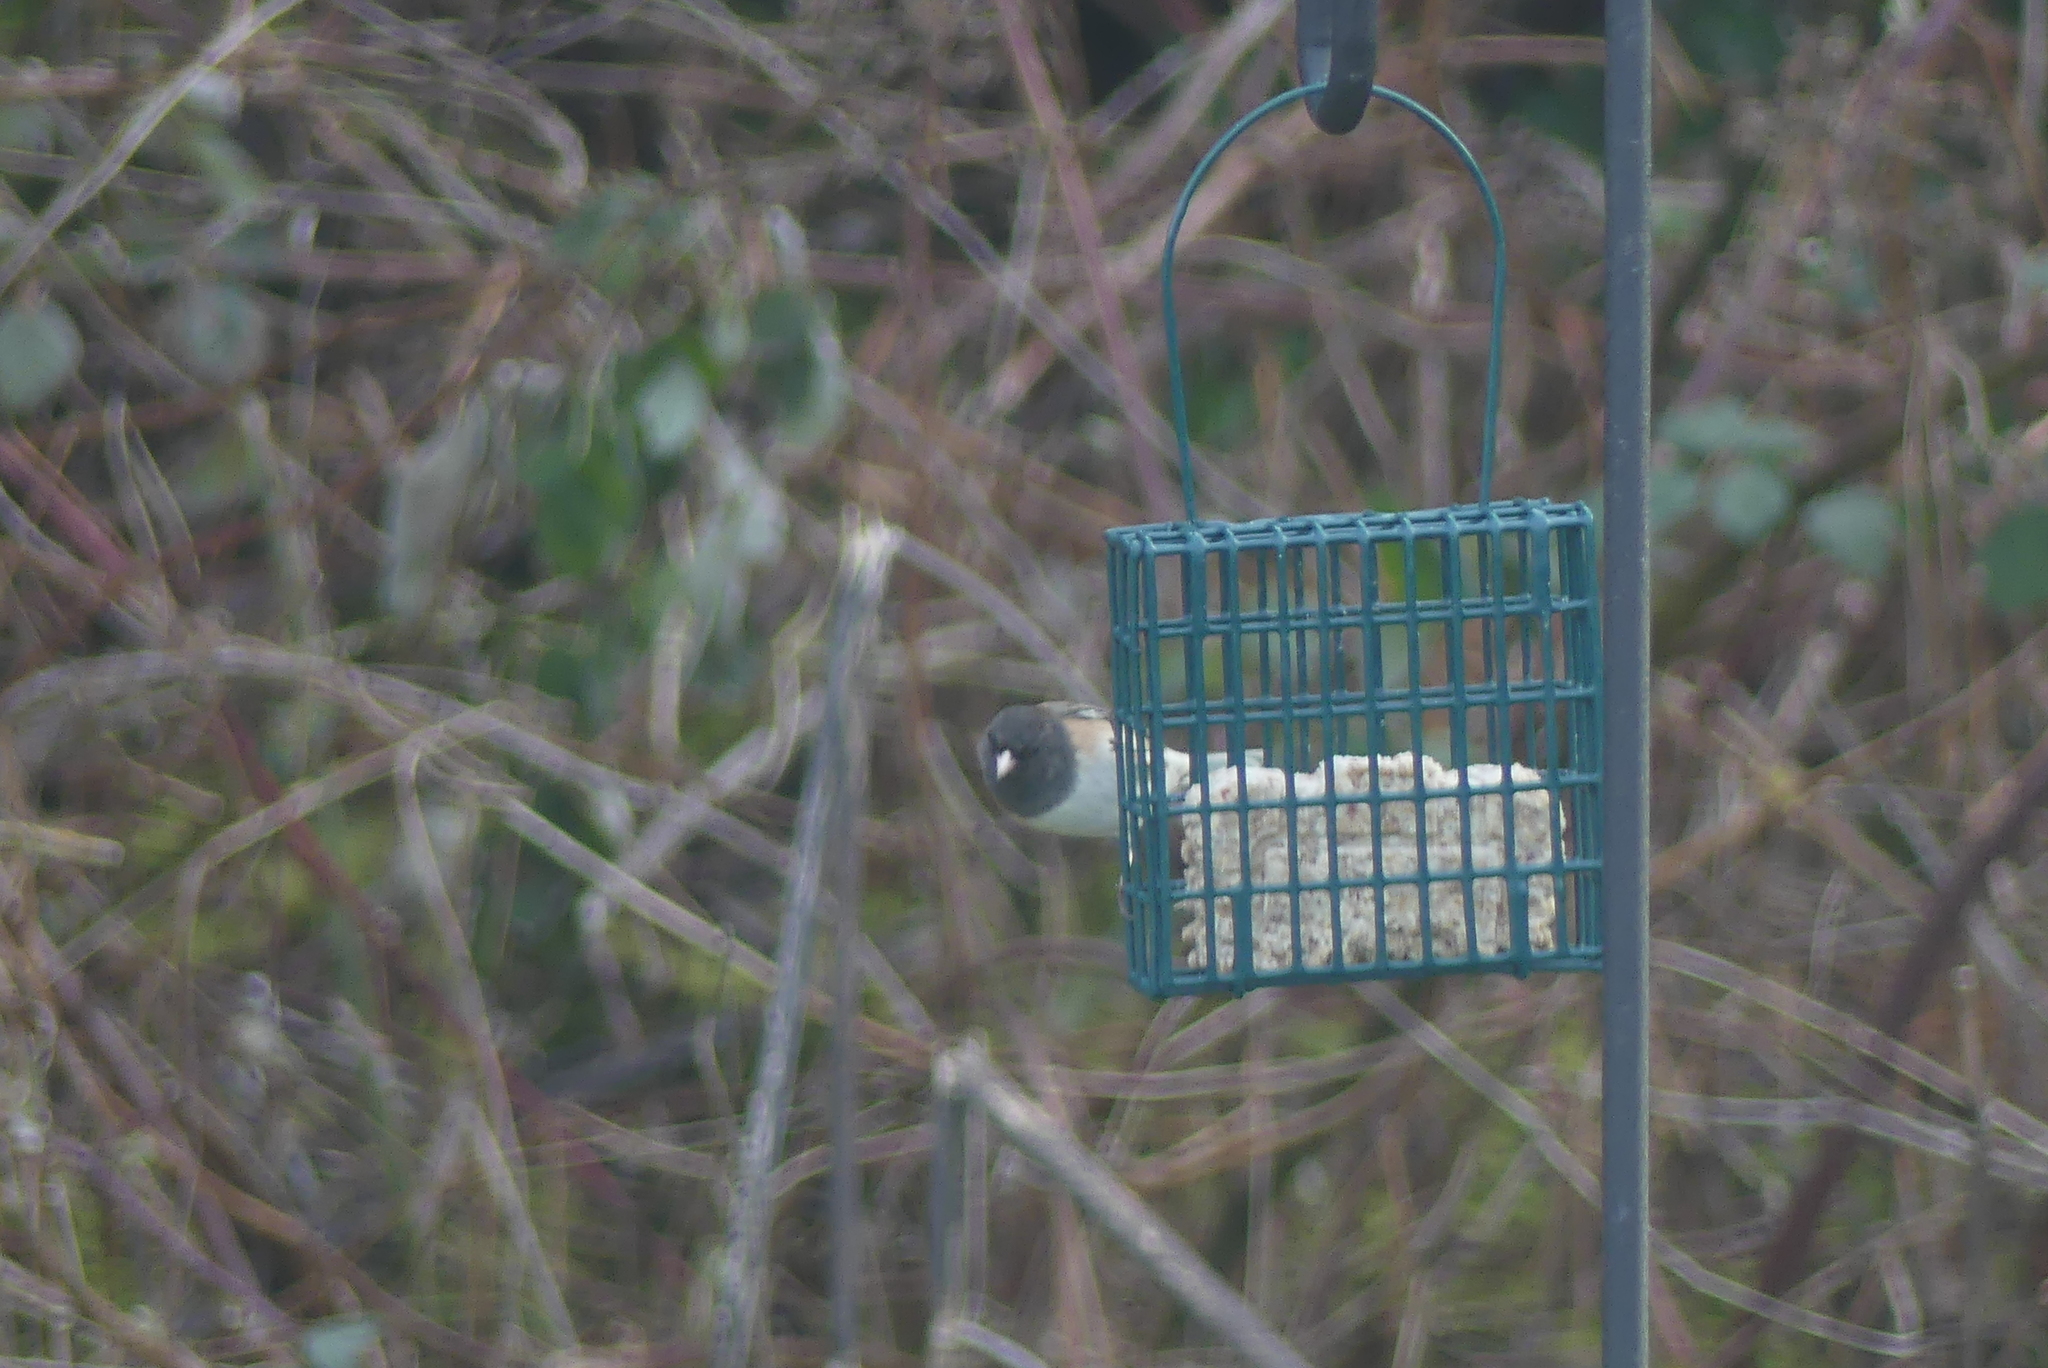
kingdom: Animalia
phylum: Chordata
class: Aves
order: Passeriformes
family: Passerellidae
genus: Junco
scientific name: Junco hyemalis
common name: Dark-eyed junco
